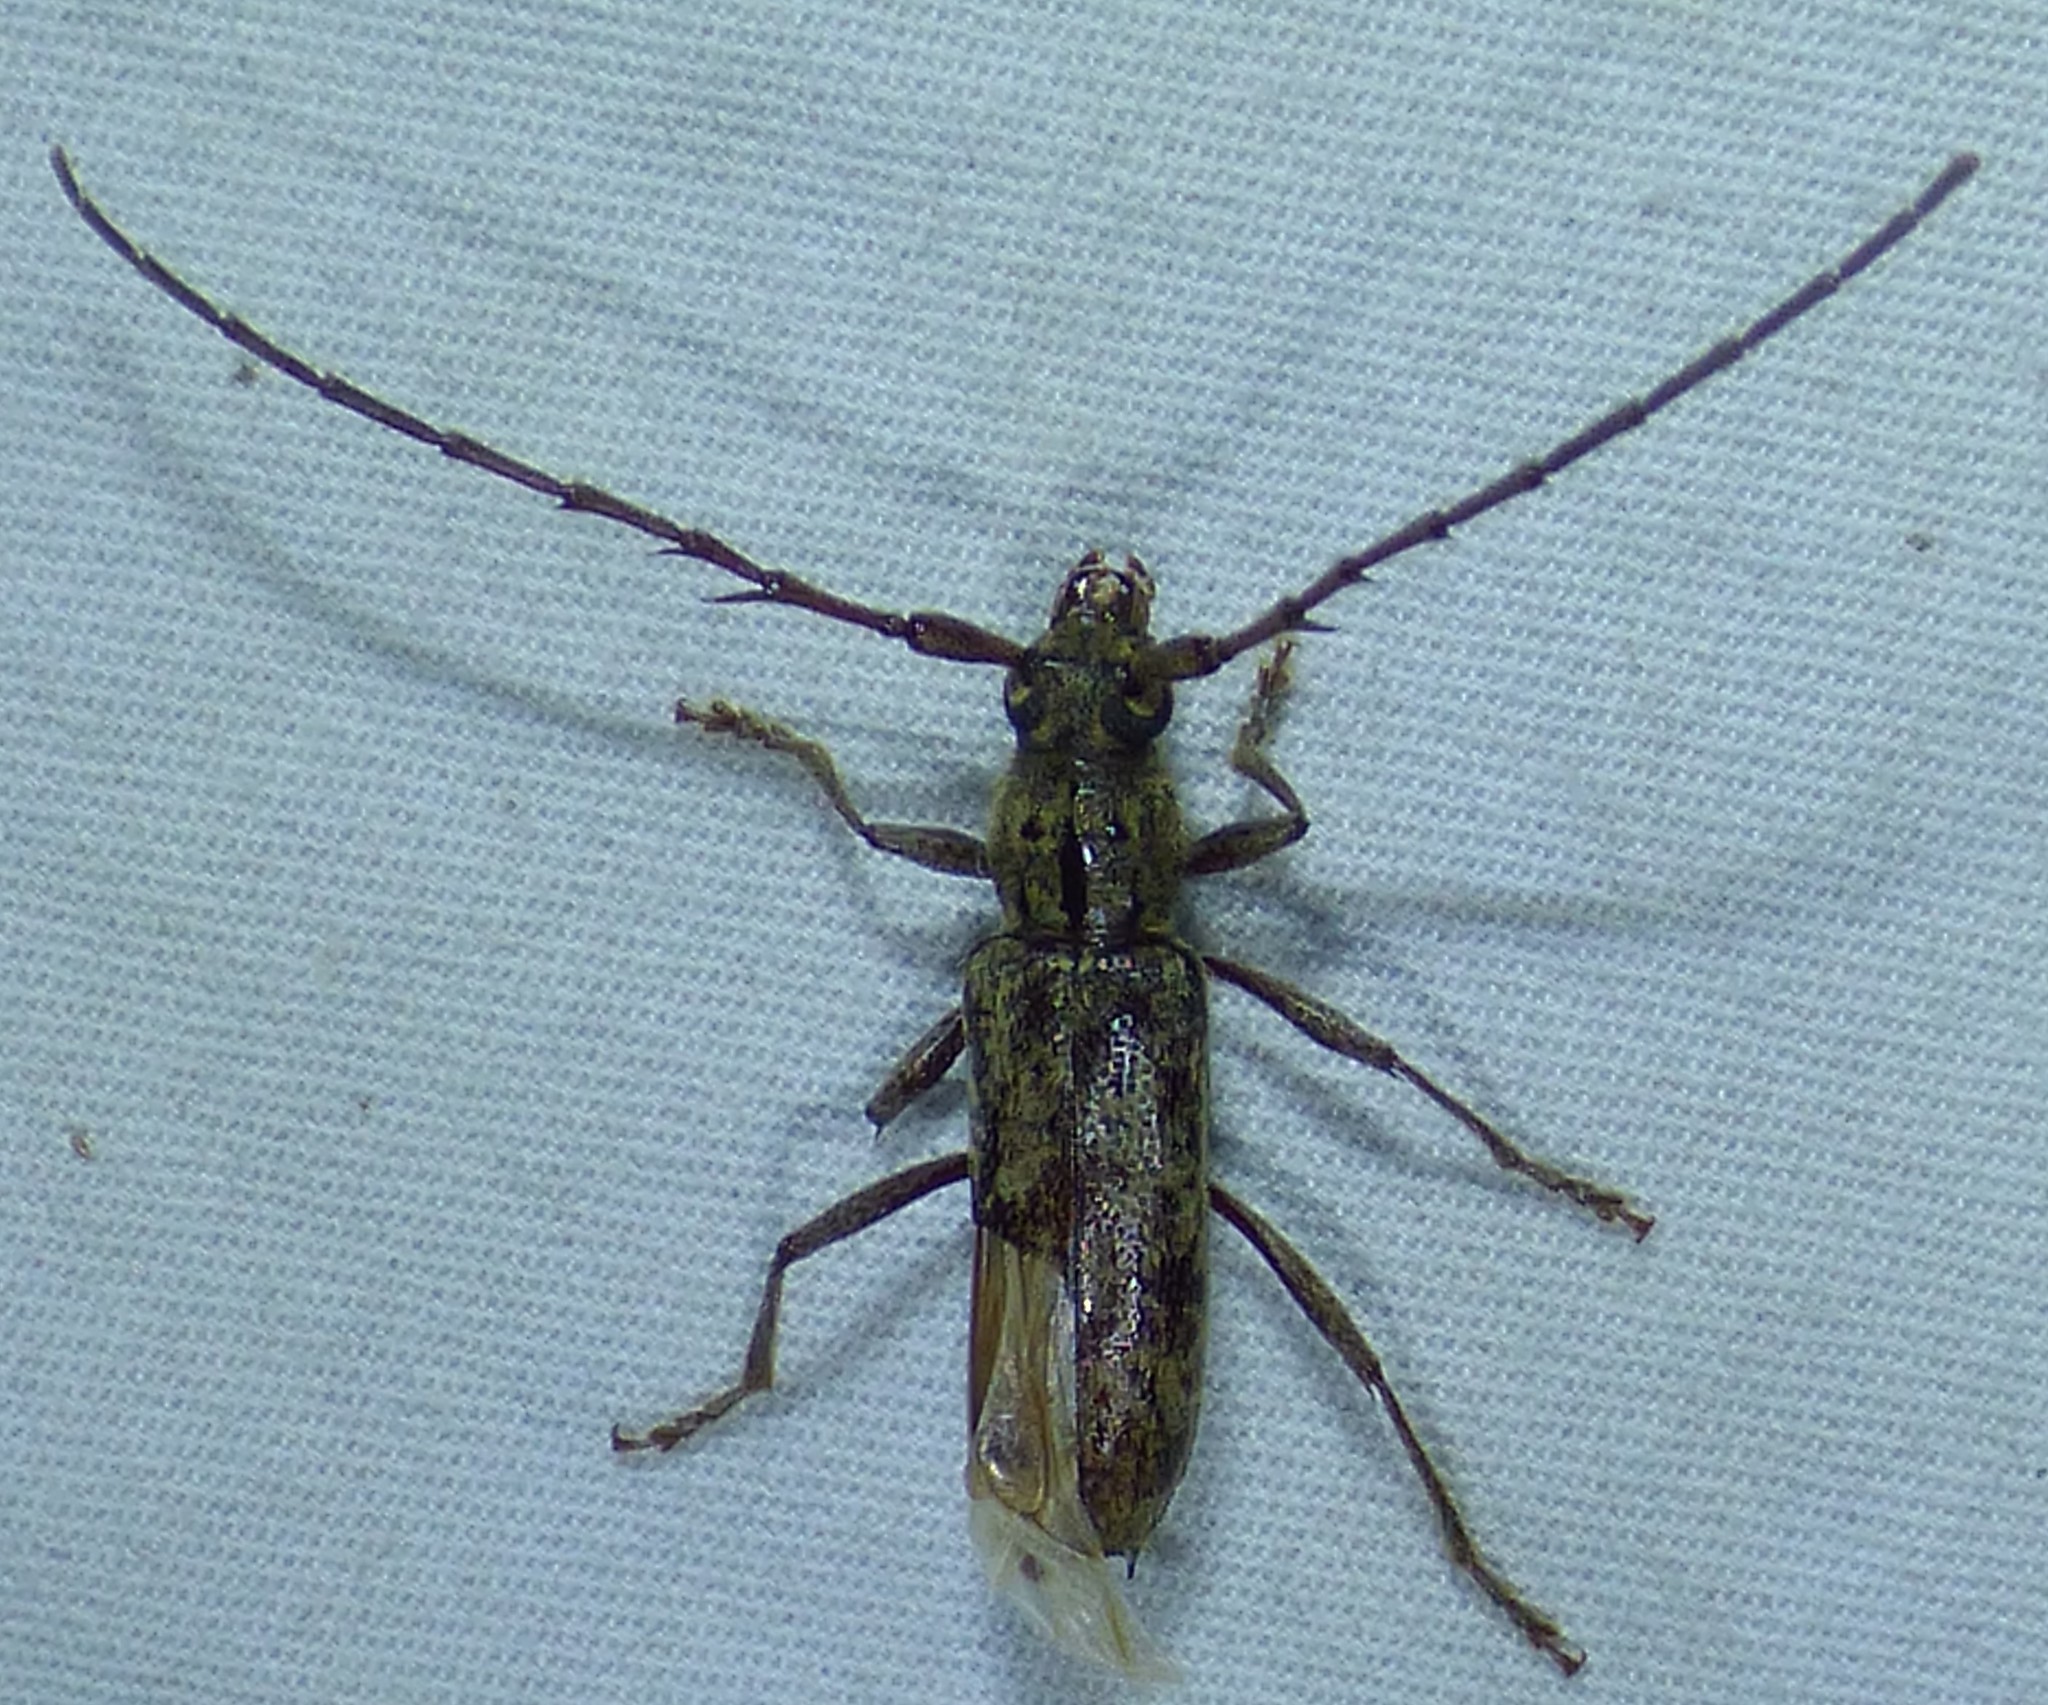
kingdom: Animalia
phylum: Arthropoda
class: Insecta
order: Coleoptera
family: Cerambycidae
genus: Elaphidion
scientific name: Elaphidion mucronatum
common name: Spined oak borer
